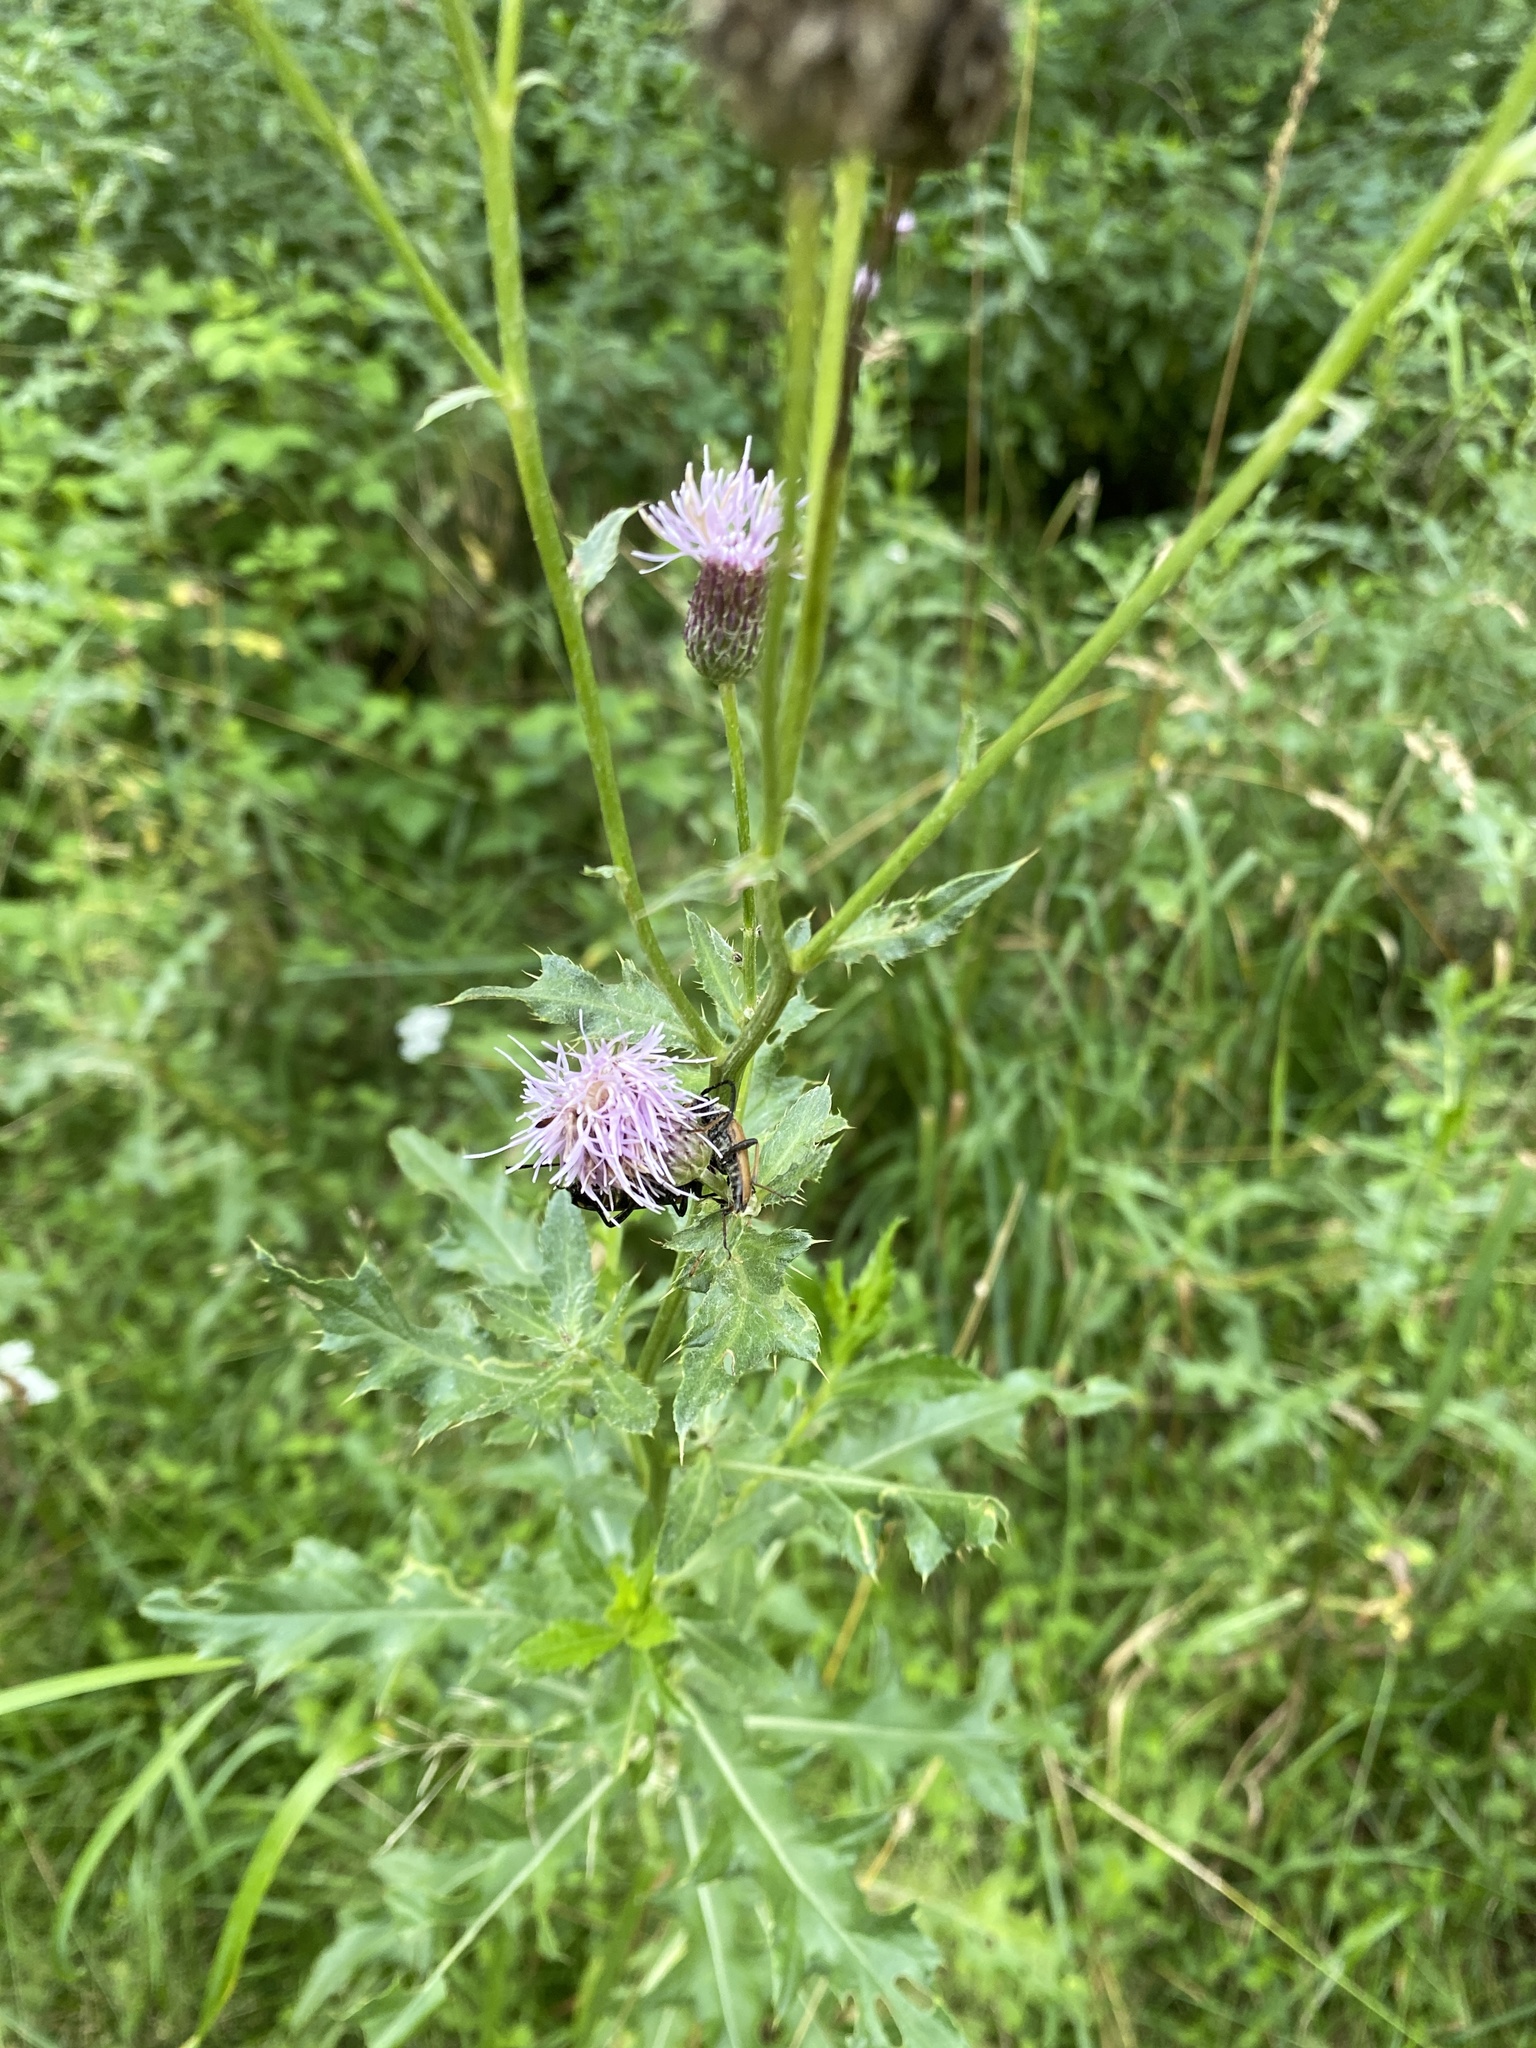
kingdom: Plantae
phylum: Tracheophyta
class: Magnoliopsida
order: Asterales
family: Asteraceae
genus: Cirsium
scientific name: Cirsium arvense
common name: Creeping thistle
